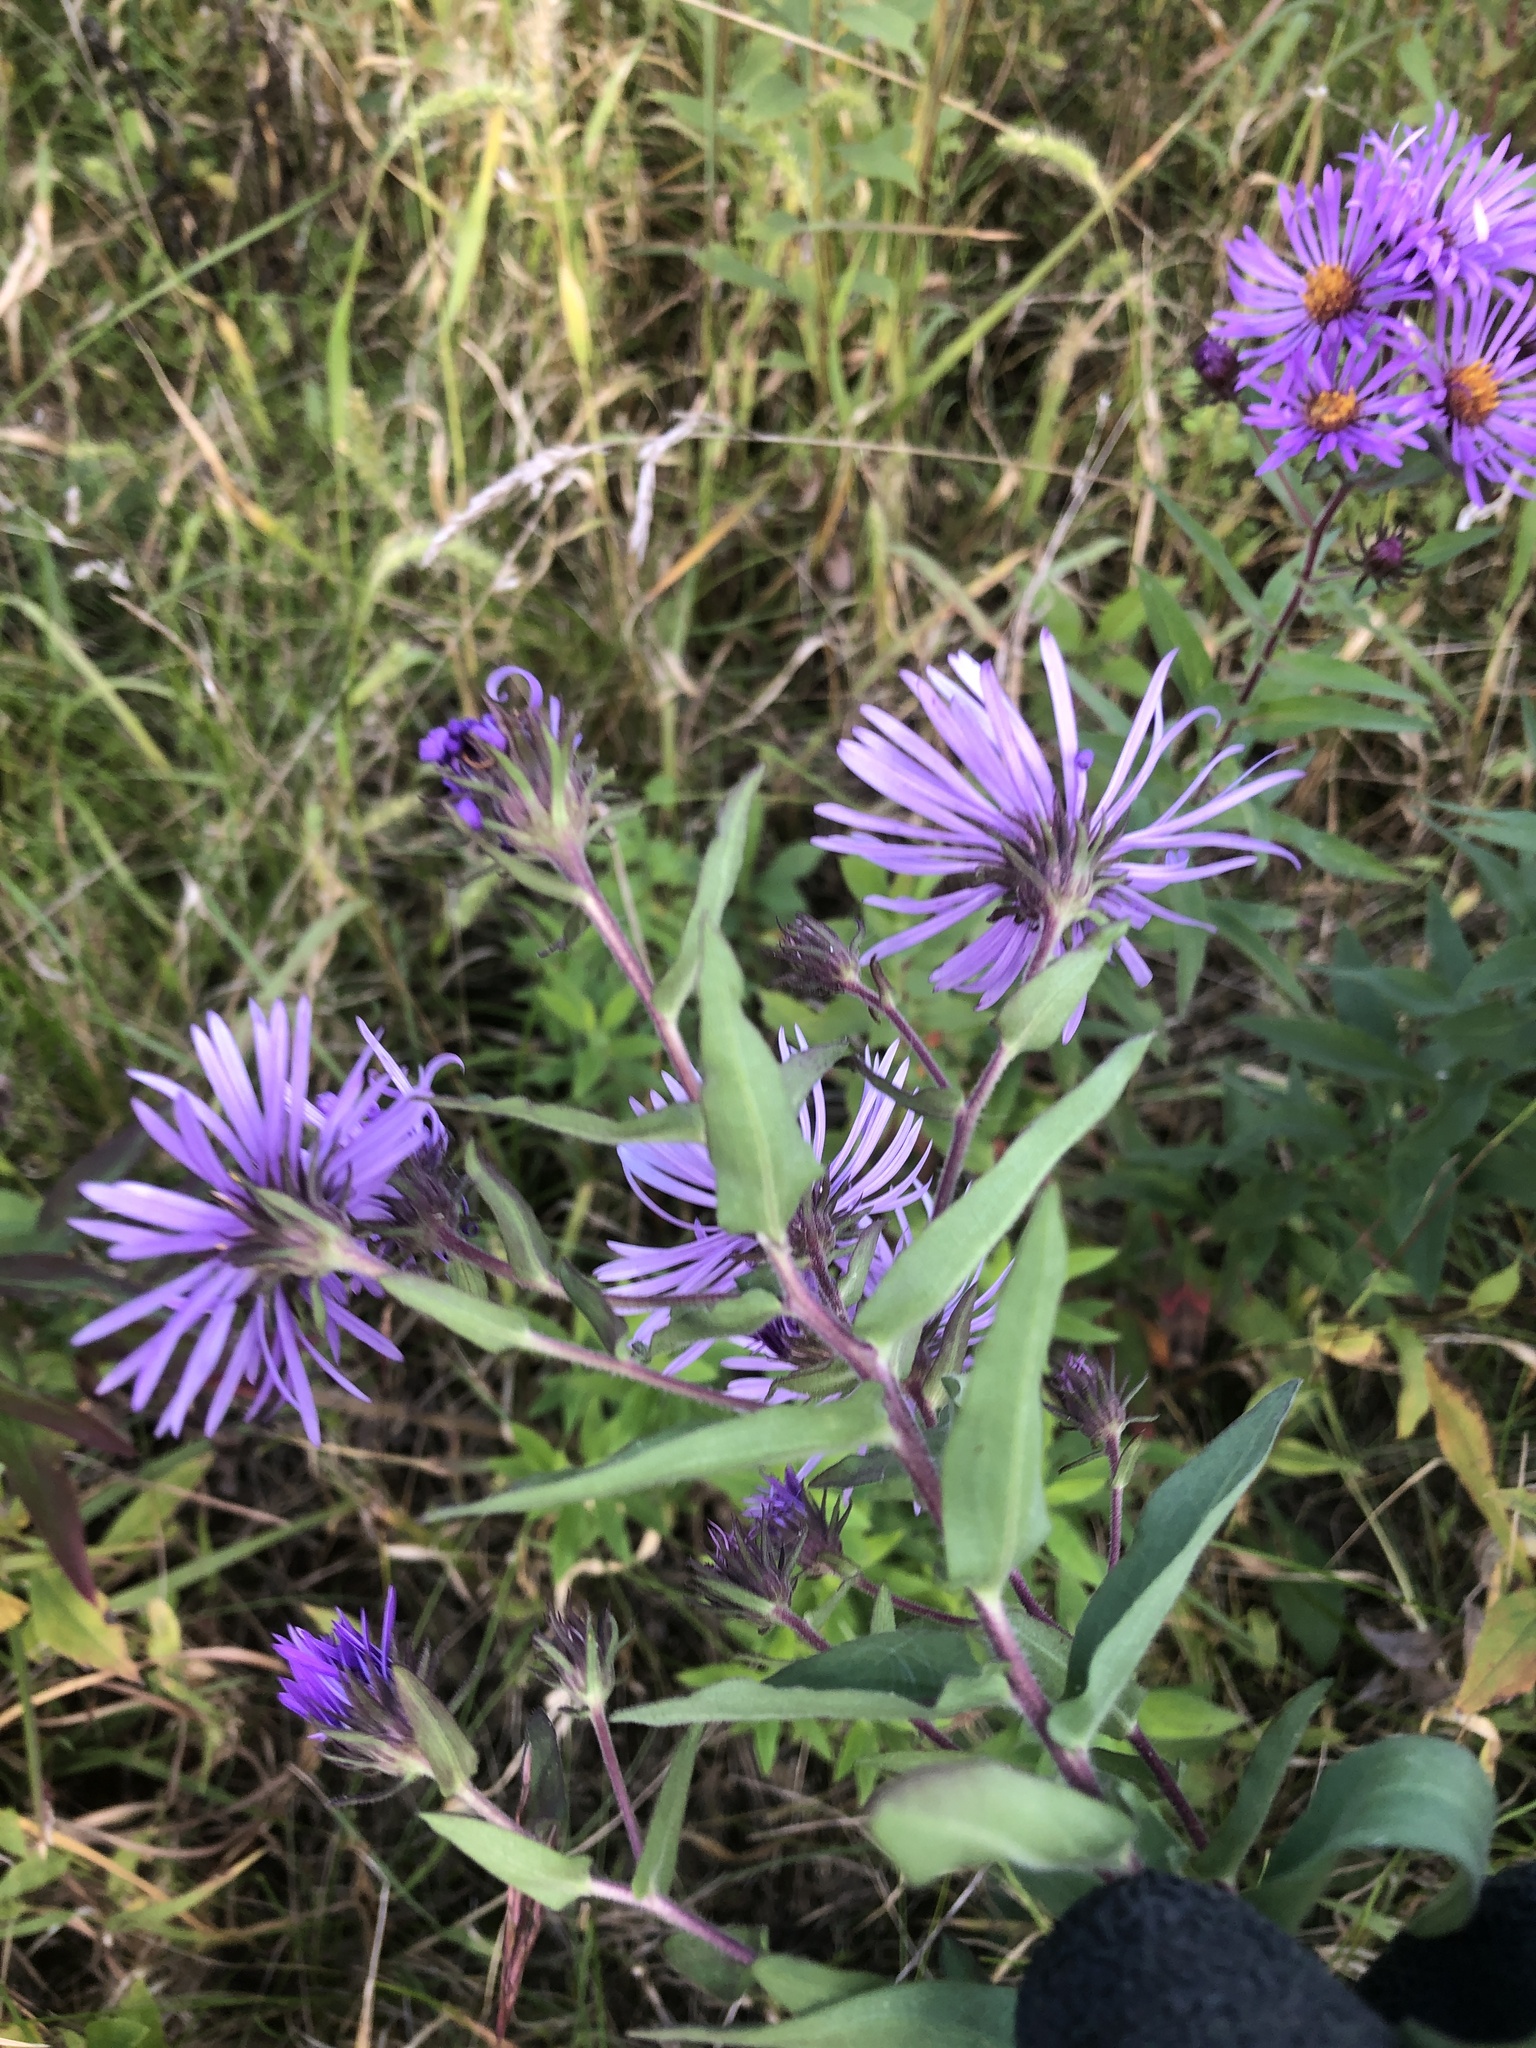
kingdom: Plantae
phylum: Tracheophyta
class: Magnoliopsida
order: Asterales
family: Asteraceae
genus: Symphyotrichum
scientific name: Symphyotrichum novae-angliae
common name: Michaelmas daisy
